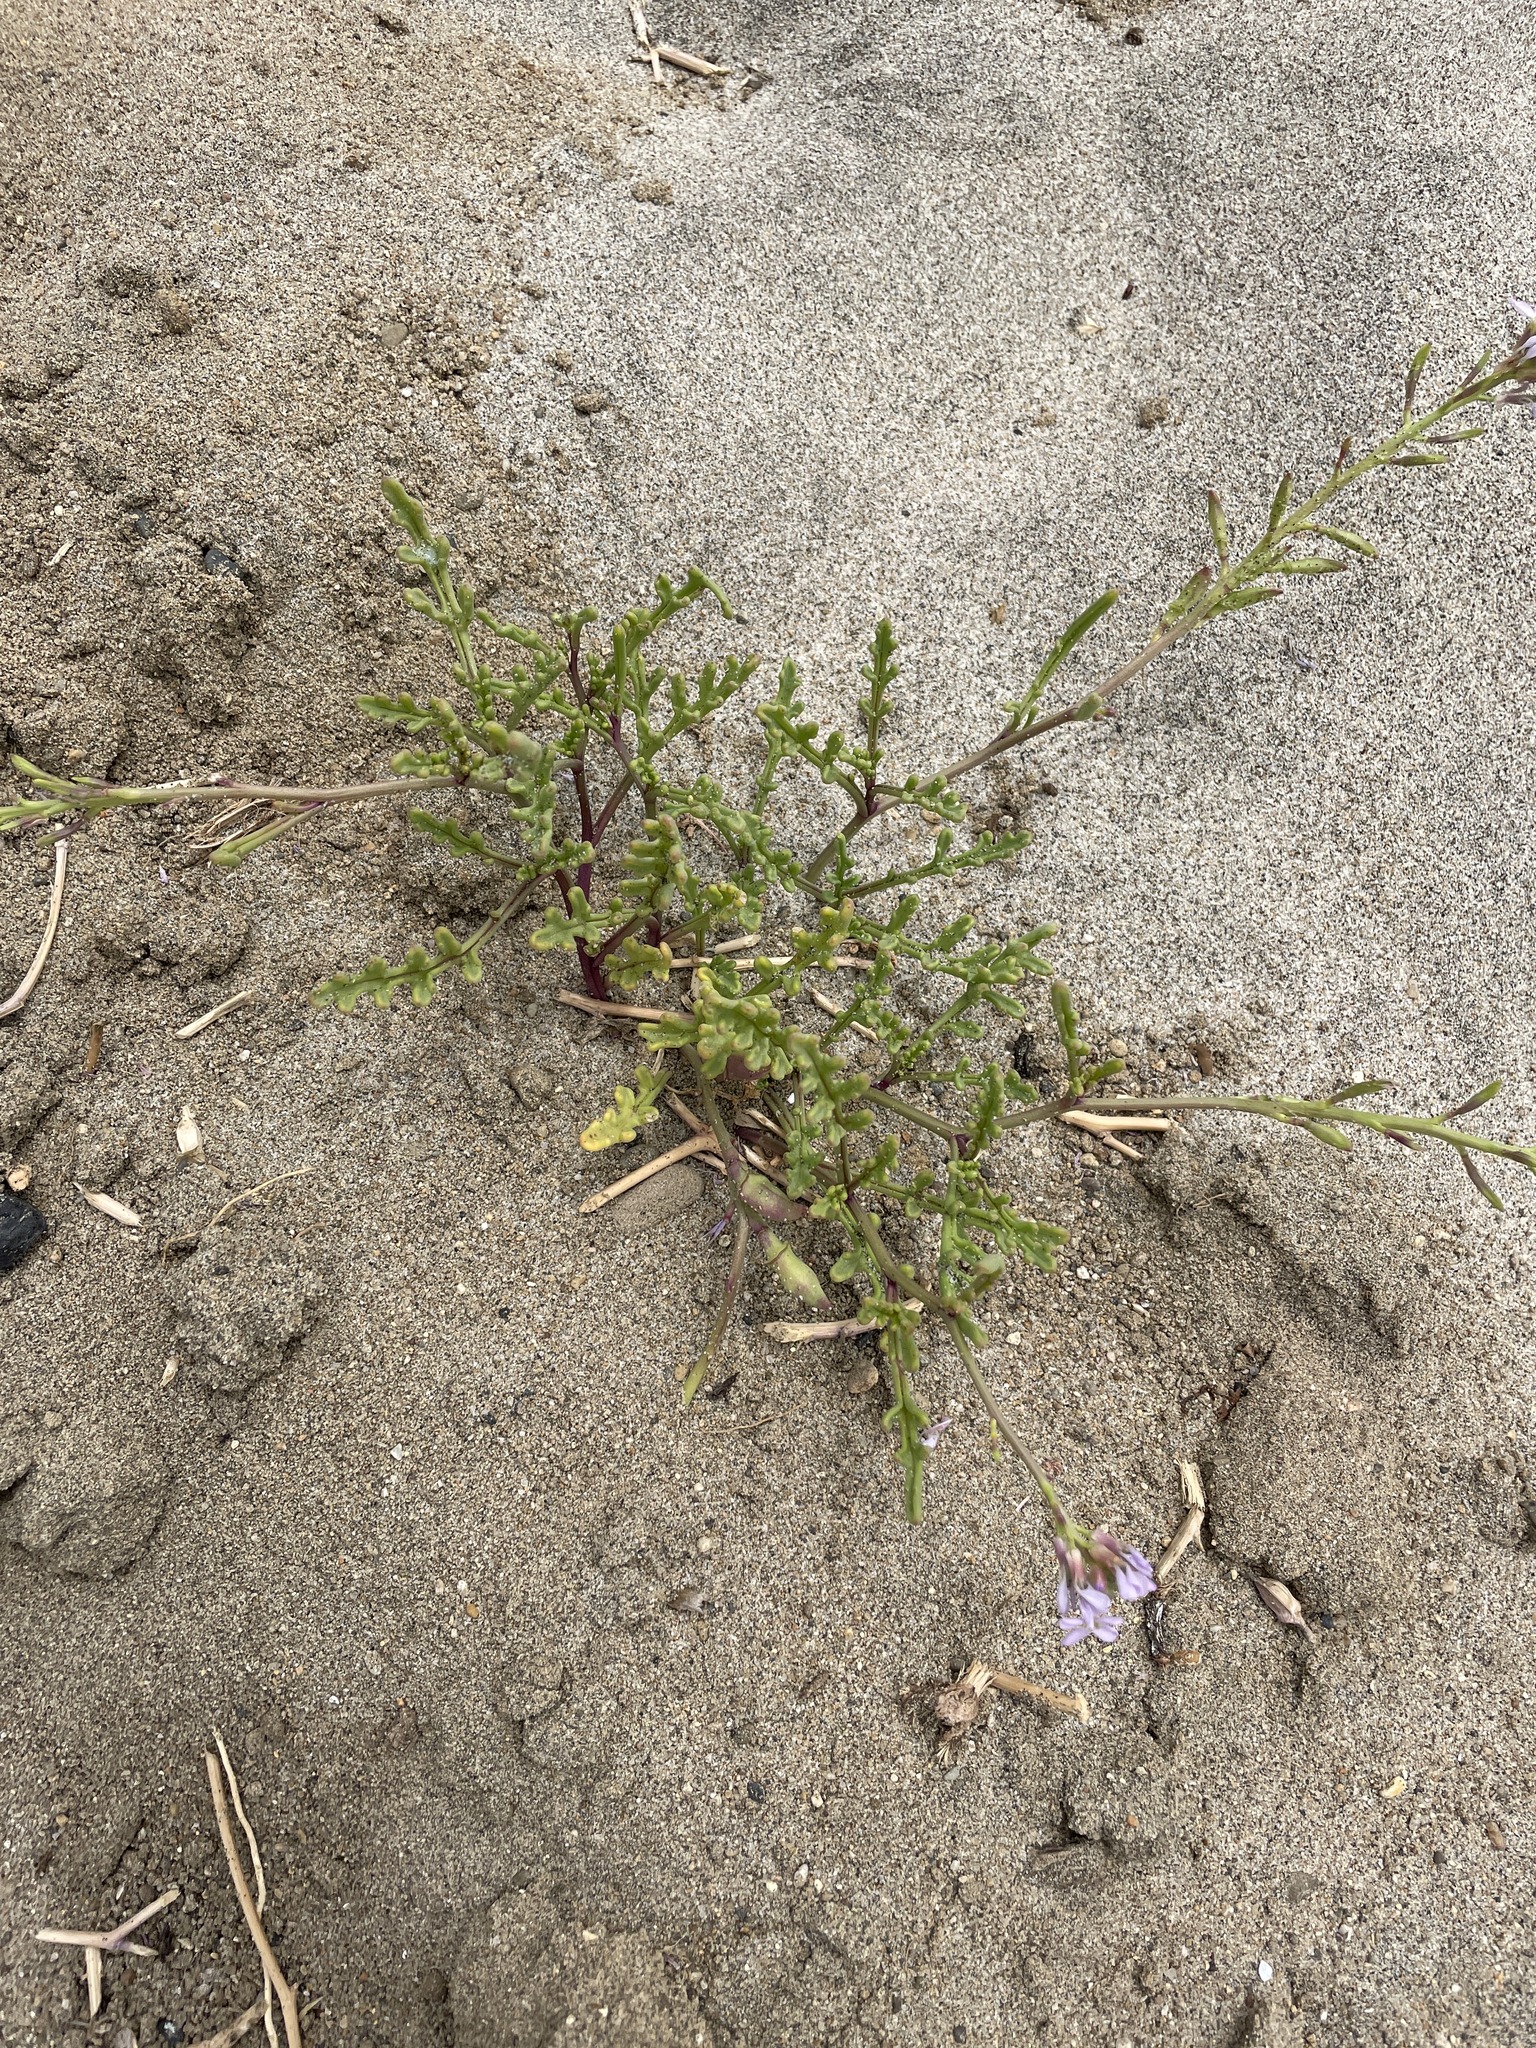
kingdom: Plantae
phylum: Tracheophyta
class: Magnoliopsida
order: Brassicales
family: Brassicaceae
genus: Cakile
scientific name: Cakile maritima
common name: Sea rocket
